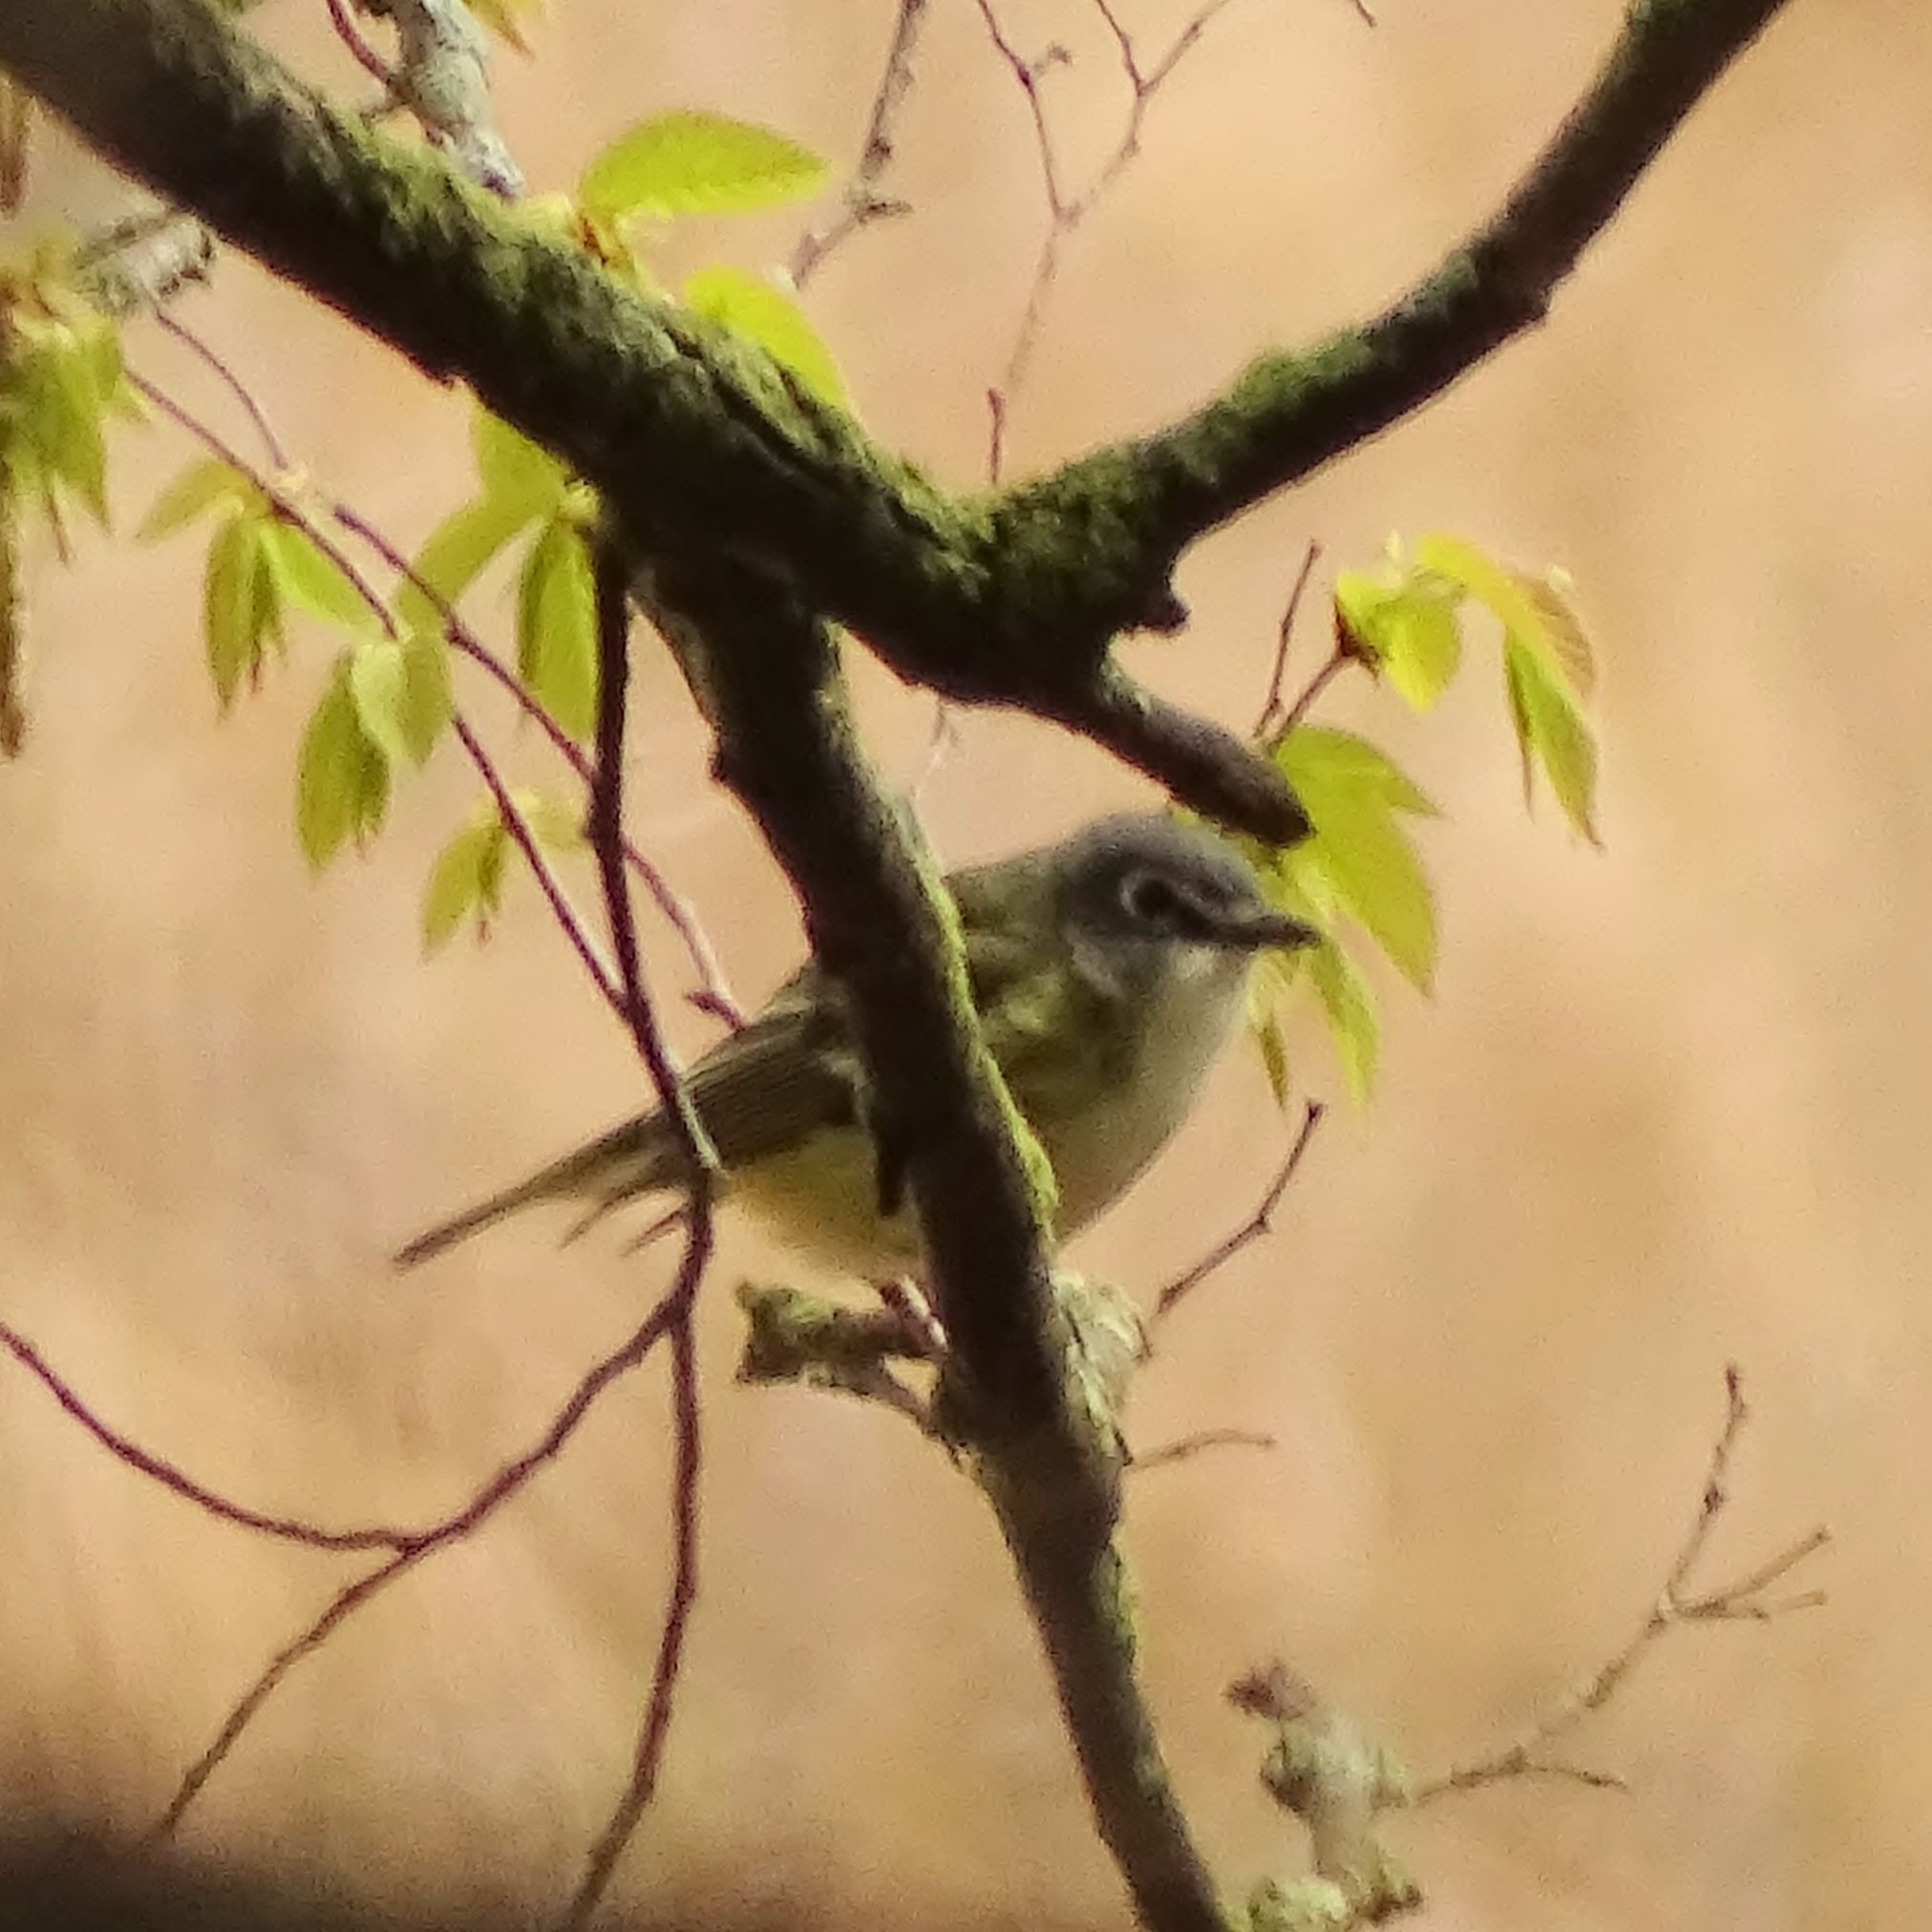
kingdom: Animalia
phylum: Chordata
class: Aves
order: Passeriformes
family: Vireonidae
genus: Vireo
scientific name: Vireo solitarius
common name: Blue-headed vireo
